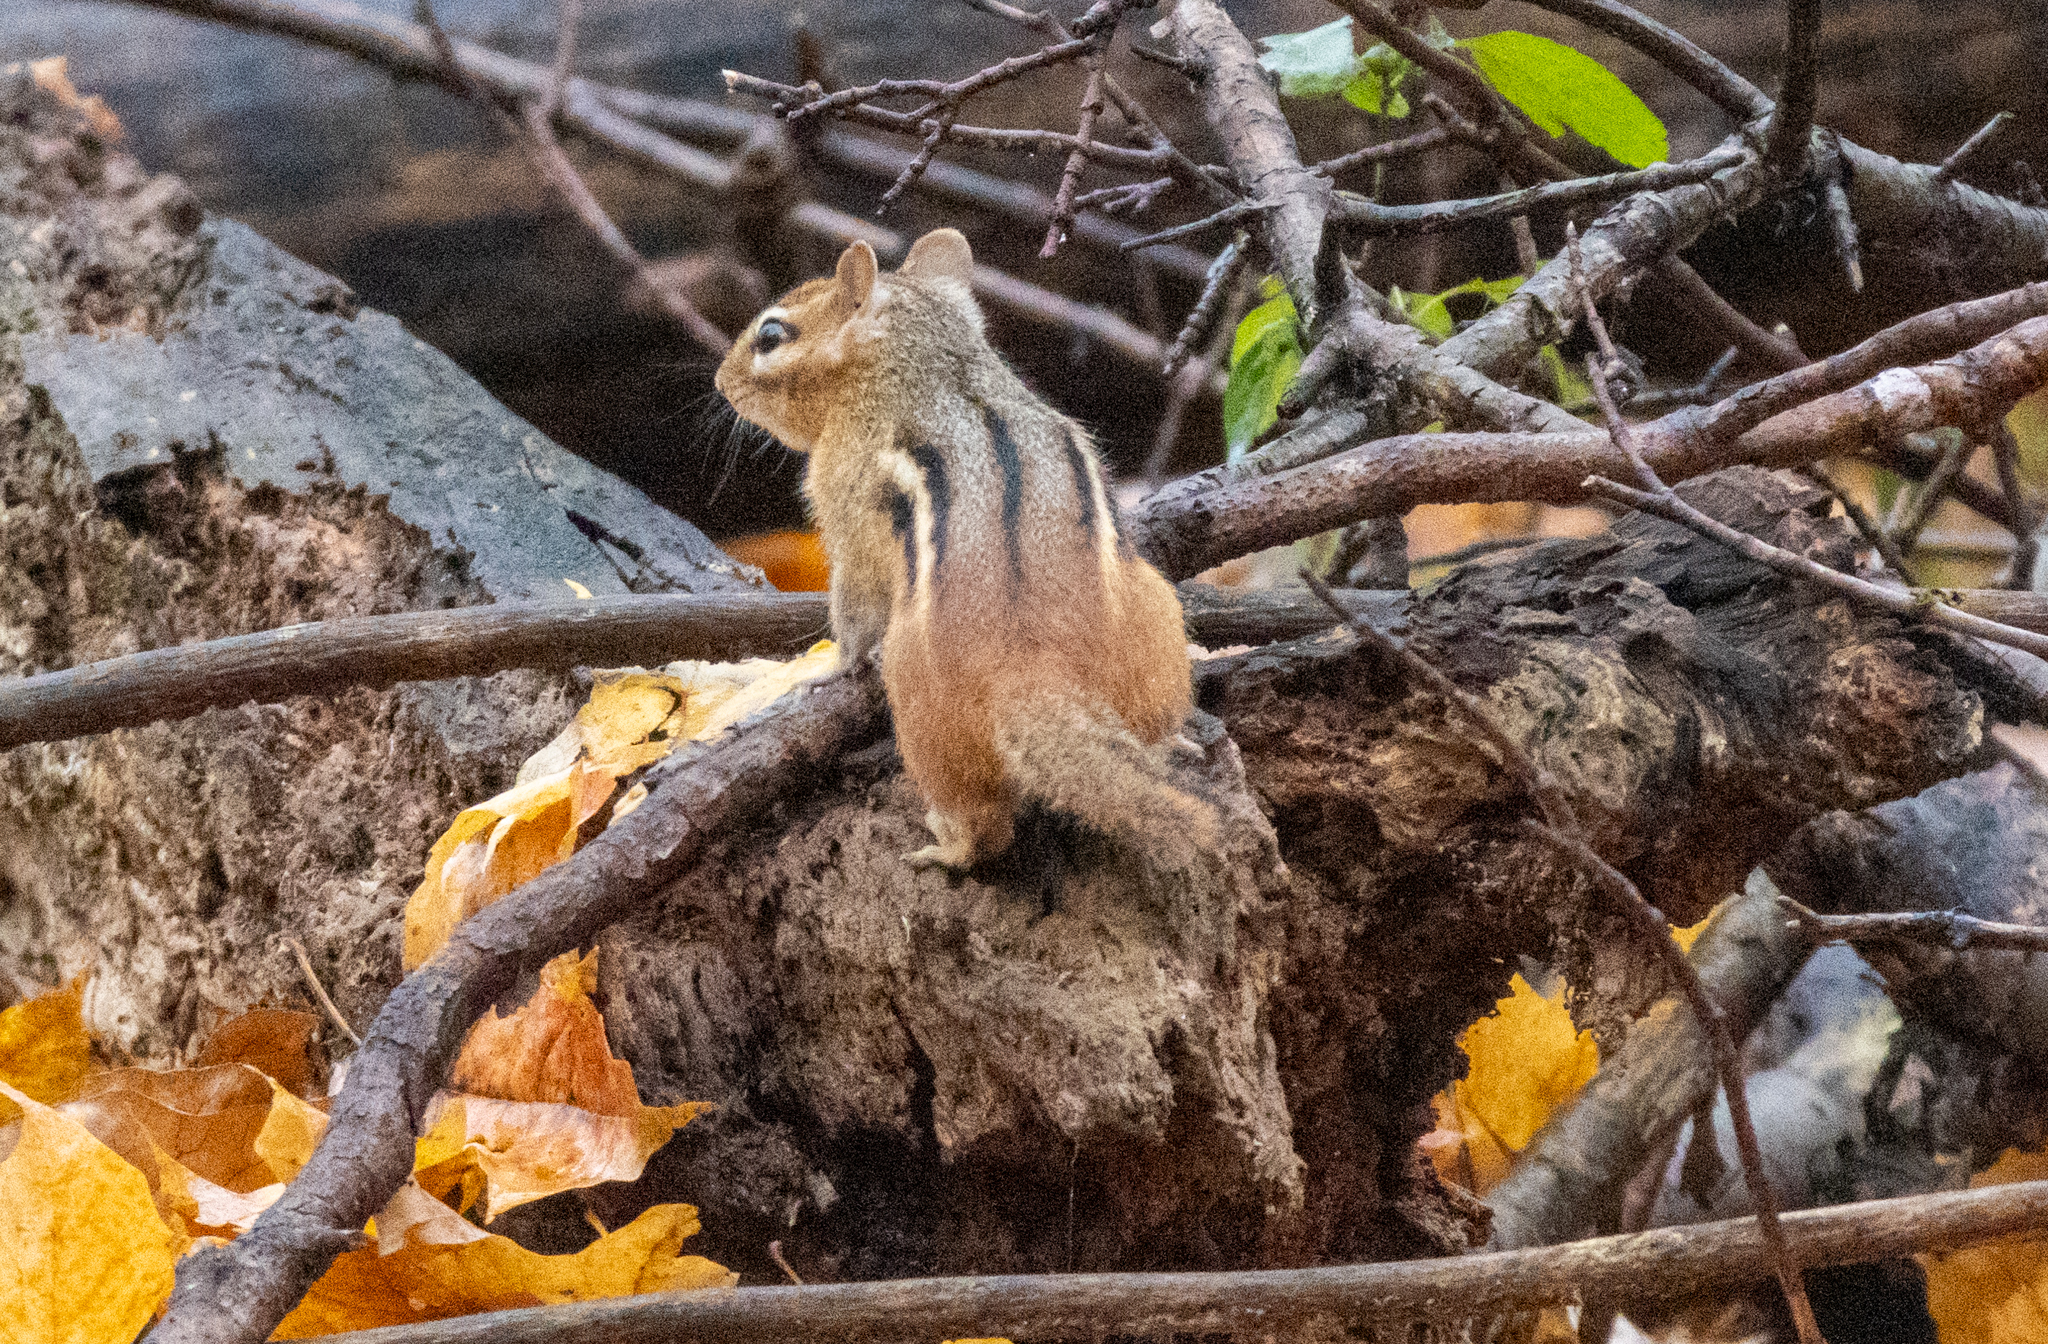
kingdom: Animalia
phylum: Chordata
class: Mammalia
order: Rodentia
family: Sciuridae
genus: Tamias
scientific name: Tamias striatus
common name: Eastern chipmunk
